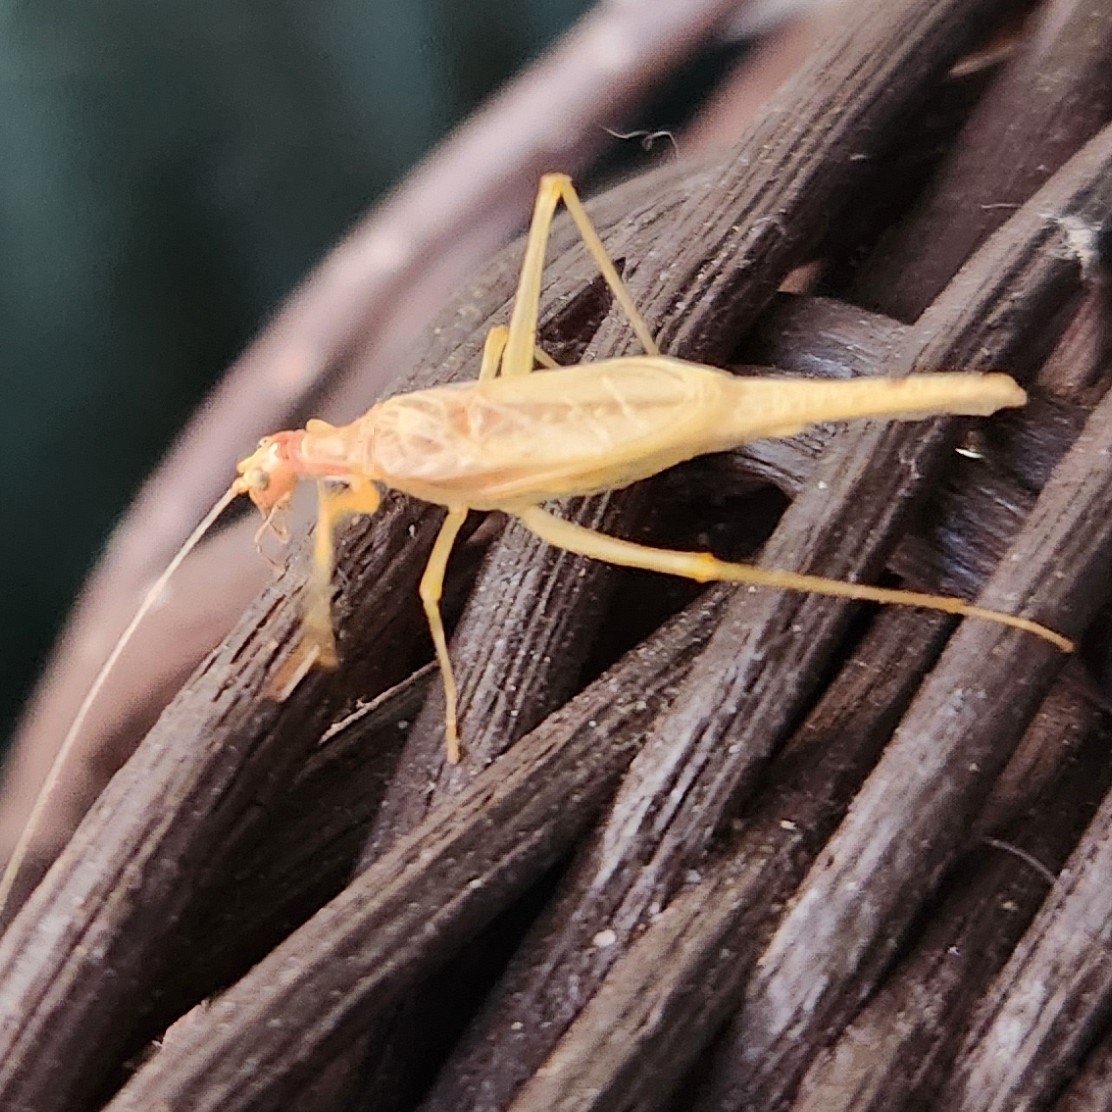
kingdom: Animalia
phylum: Arthropoda
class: Insecta
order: Orthoptera
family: Gryllidae
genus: Neoxabea
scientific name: Neoxabea bipunctata
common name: Two-spotted tree cricket
